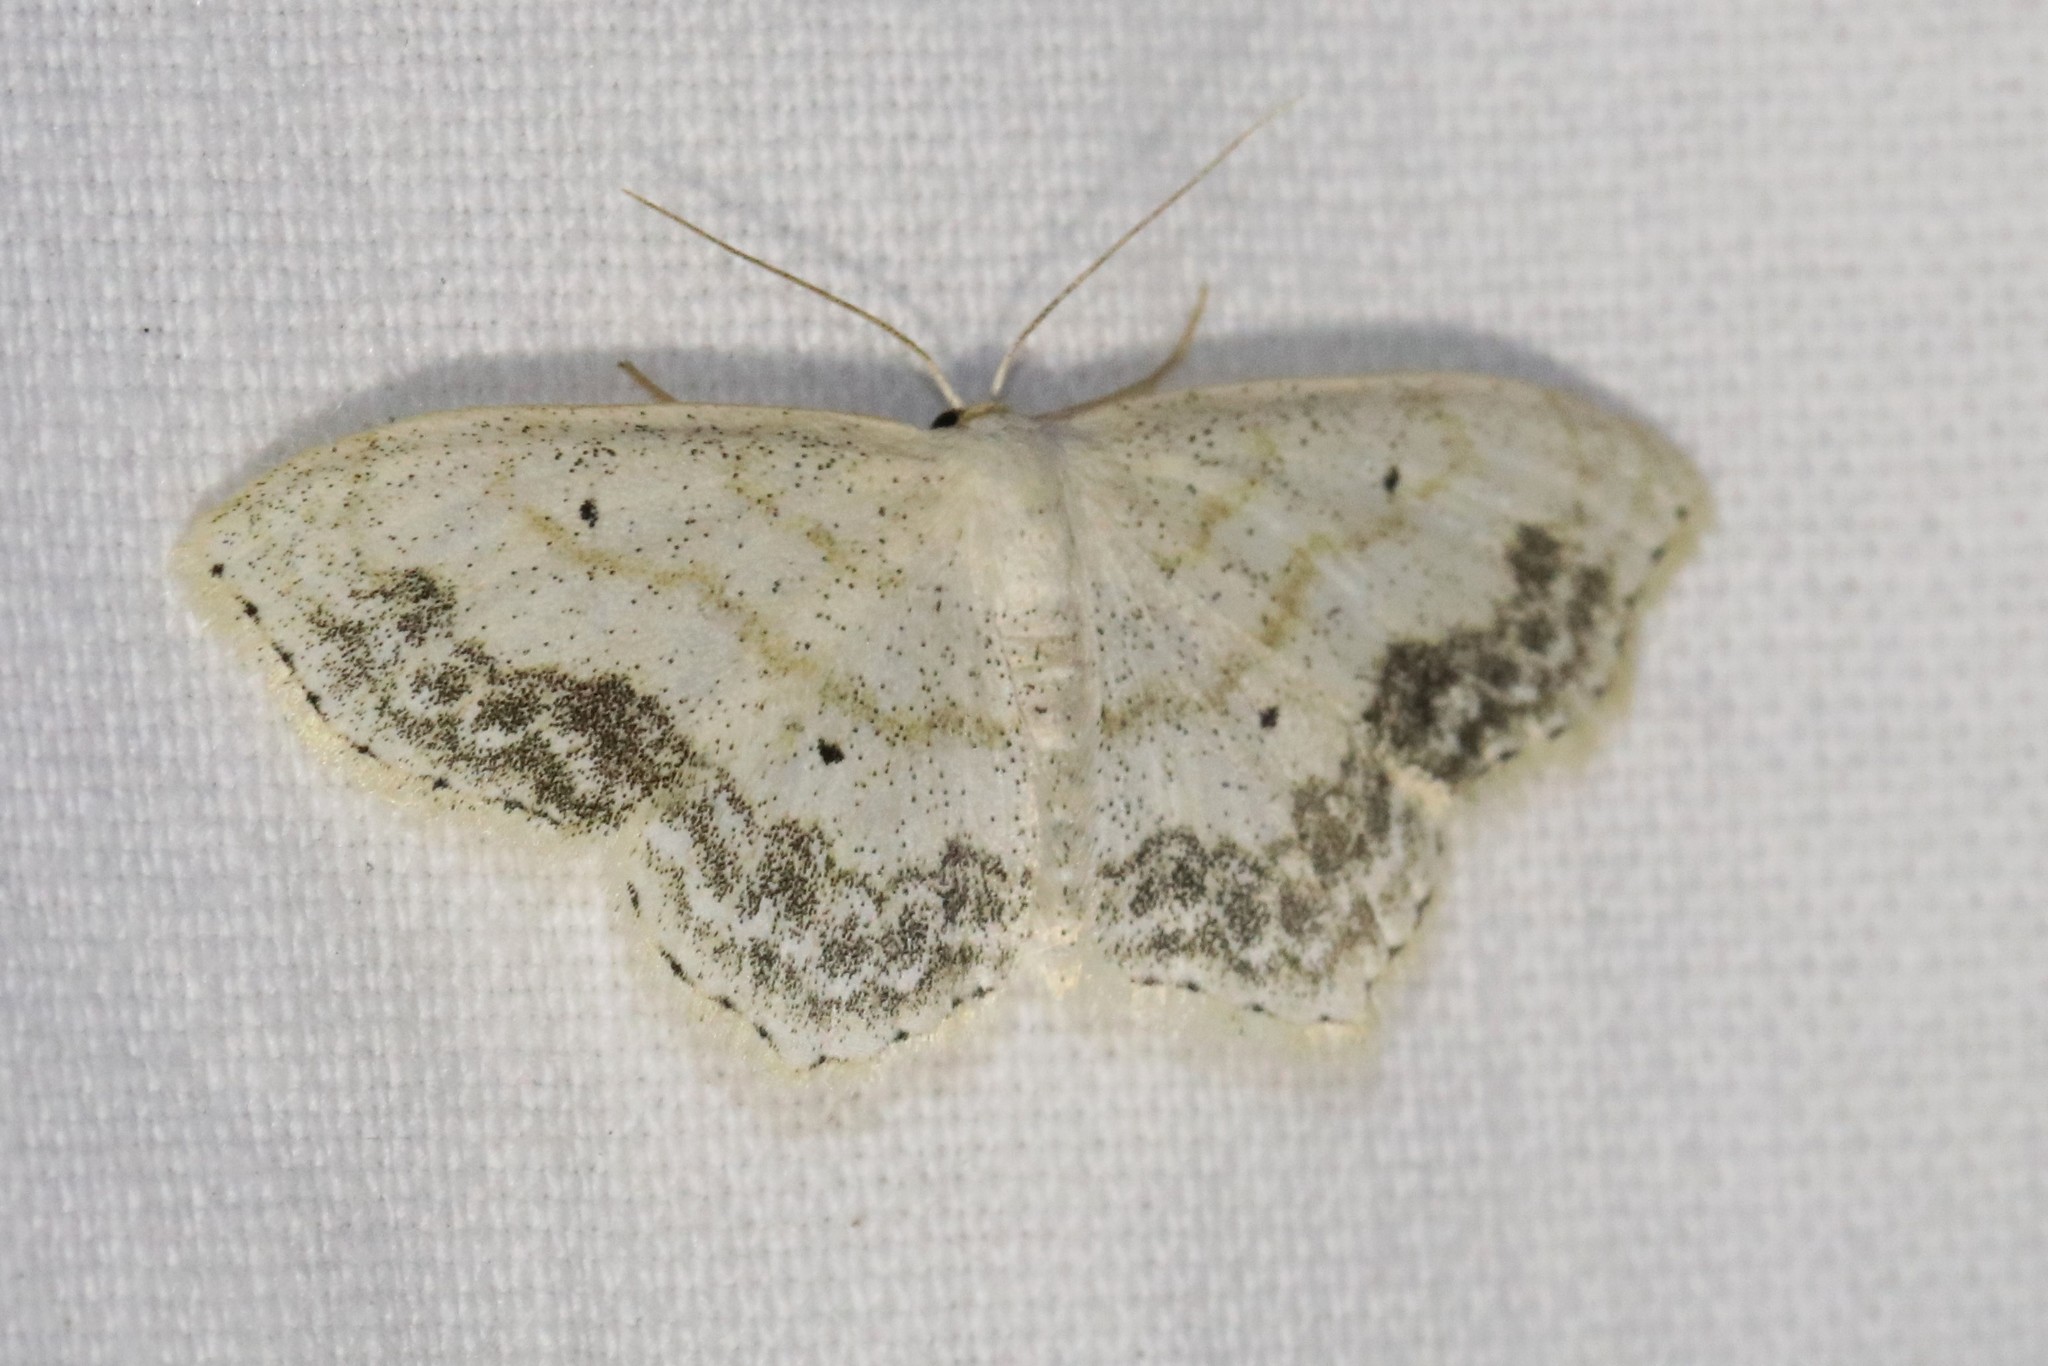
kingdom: Animalia
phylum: Arthropoda
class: Insecta
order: Lepidoptera
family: Geometridae
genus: Scopula
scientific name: Scopula limboundata
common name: Large lace border
